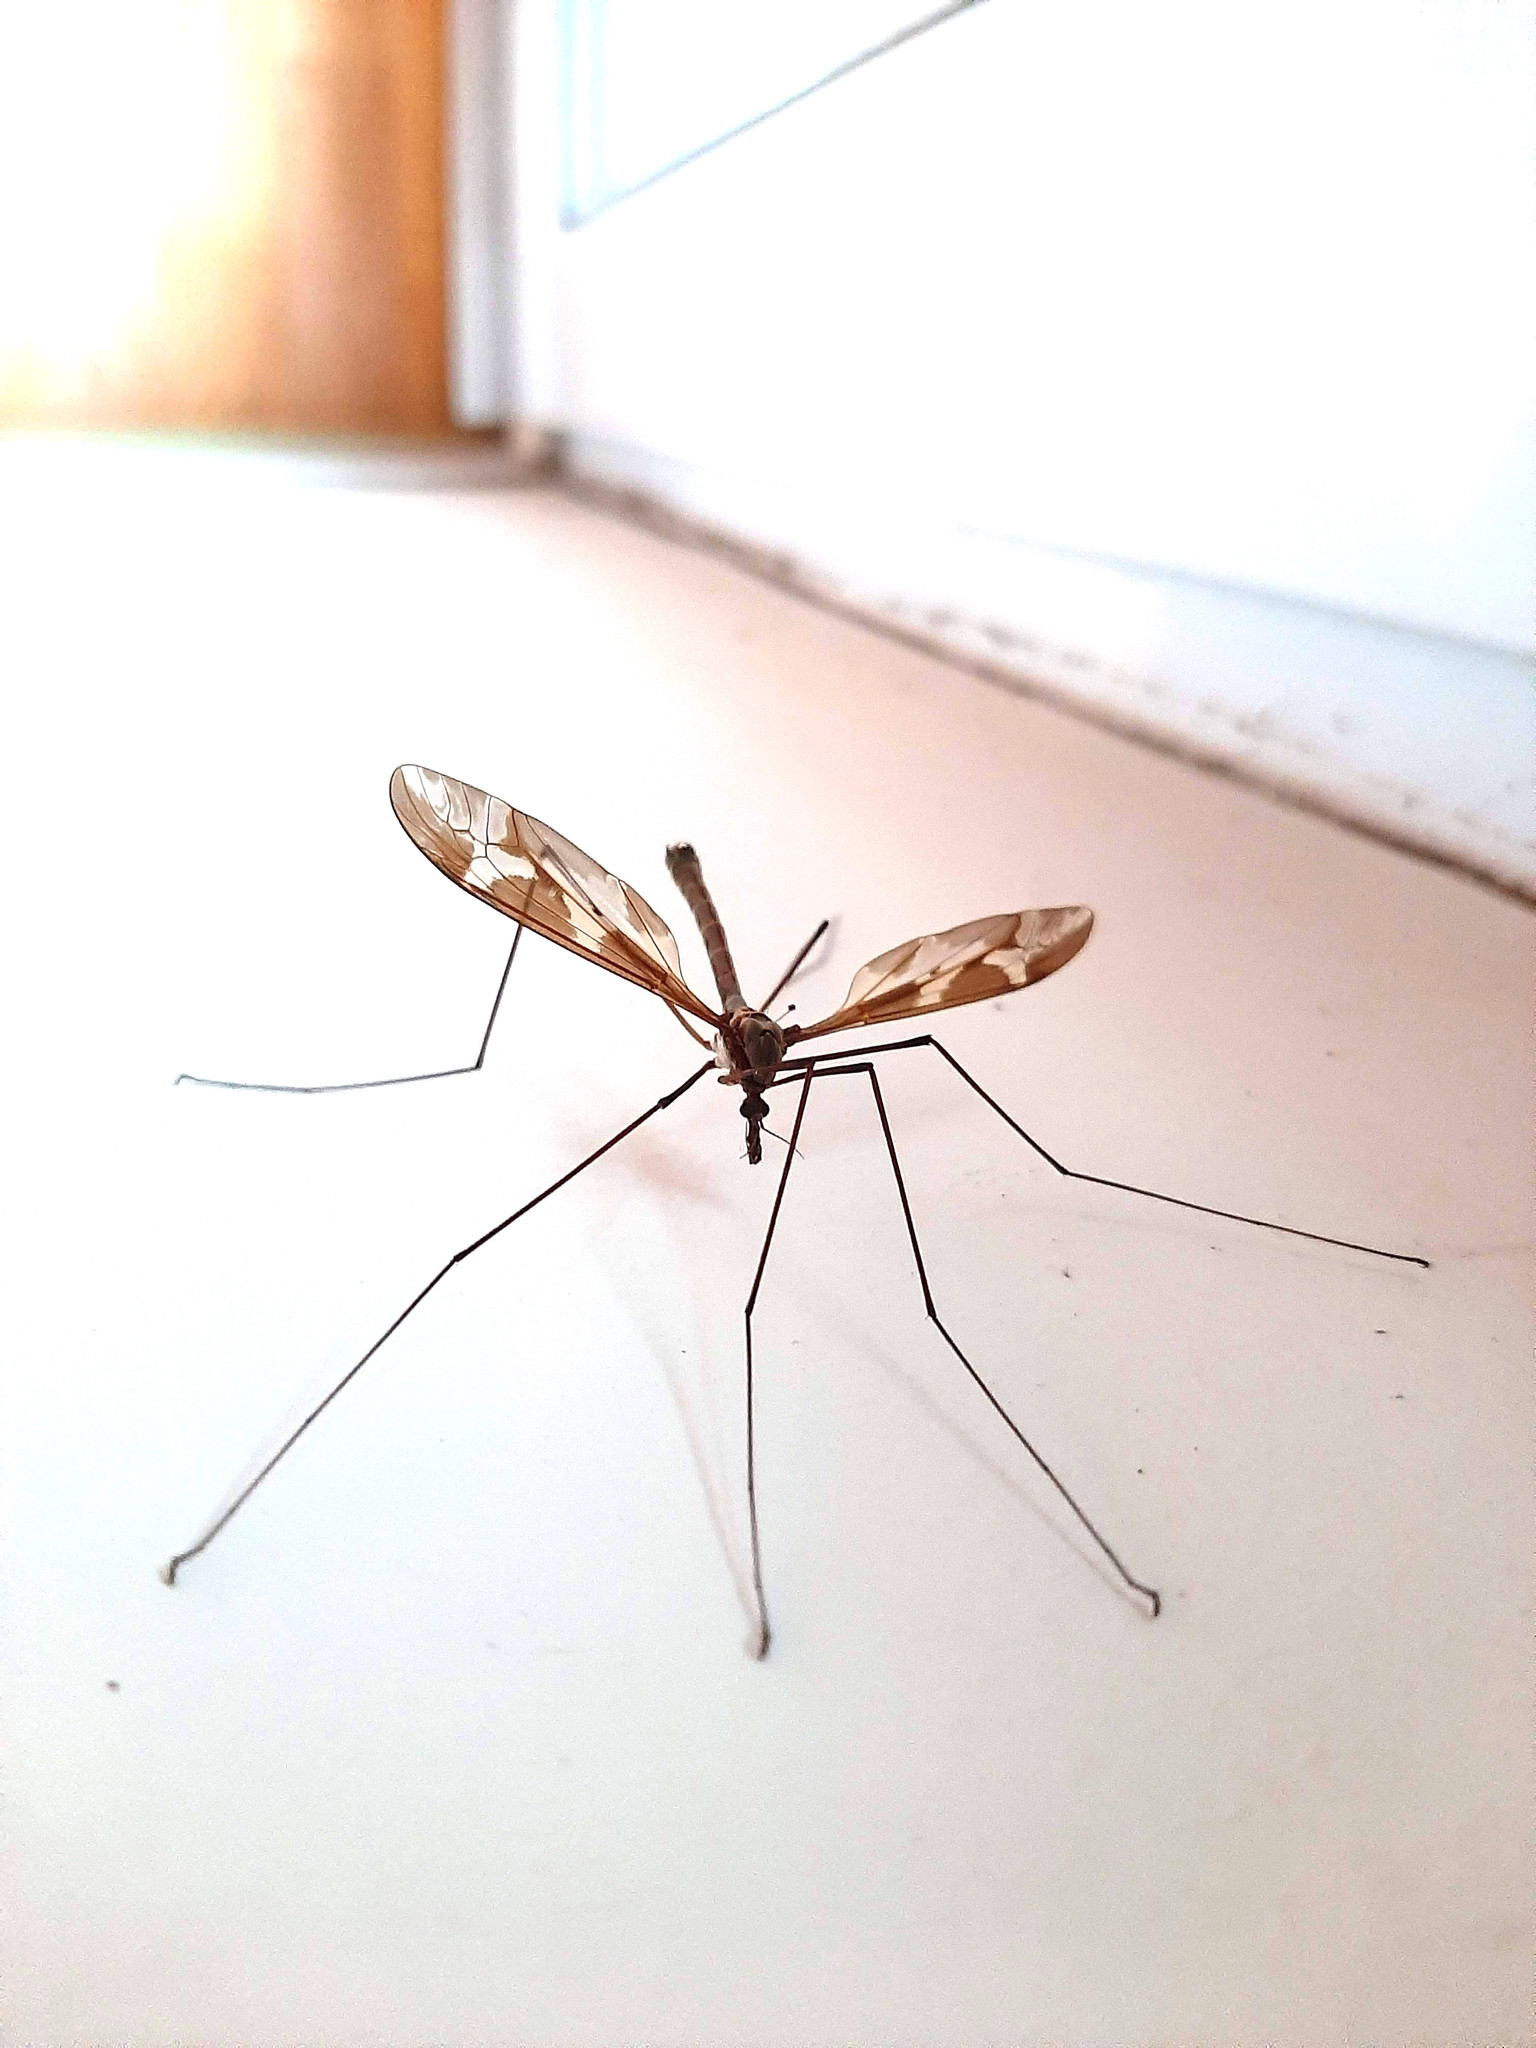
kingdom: Animalia
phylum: Arthropoda
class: Insecta
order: Diptera
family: Tipulidae
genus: Tipula
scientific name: Tipula maxima
